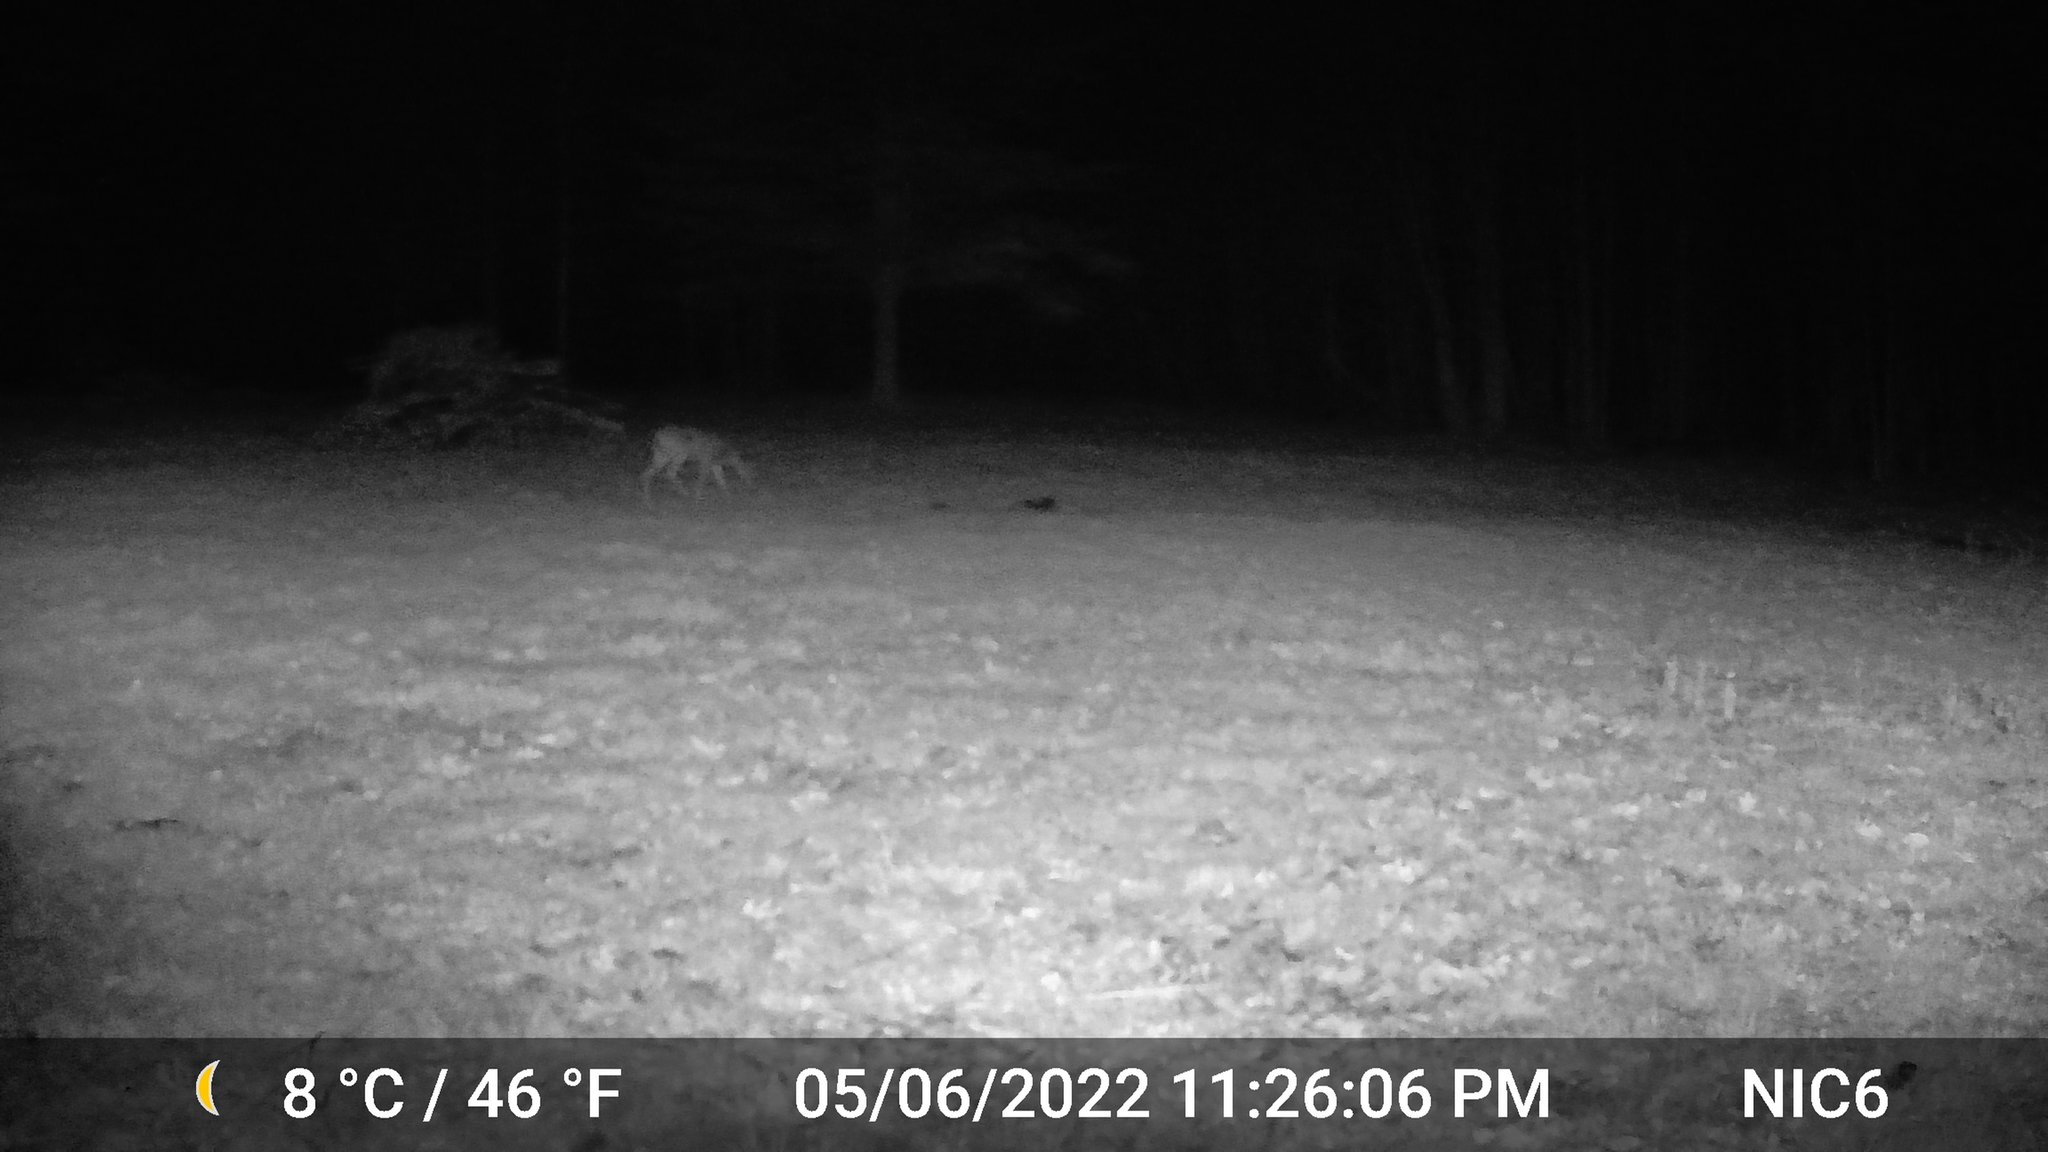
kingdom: Animalia
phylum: Chordata
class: Mammalia
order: Artiodactyla
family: Cervidae
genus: Odocoileus
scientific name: Odocoileus virginianus
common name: White-tailed deer
